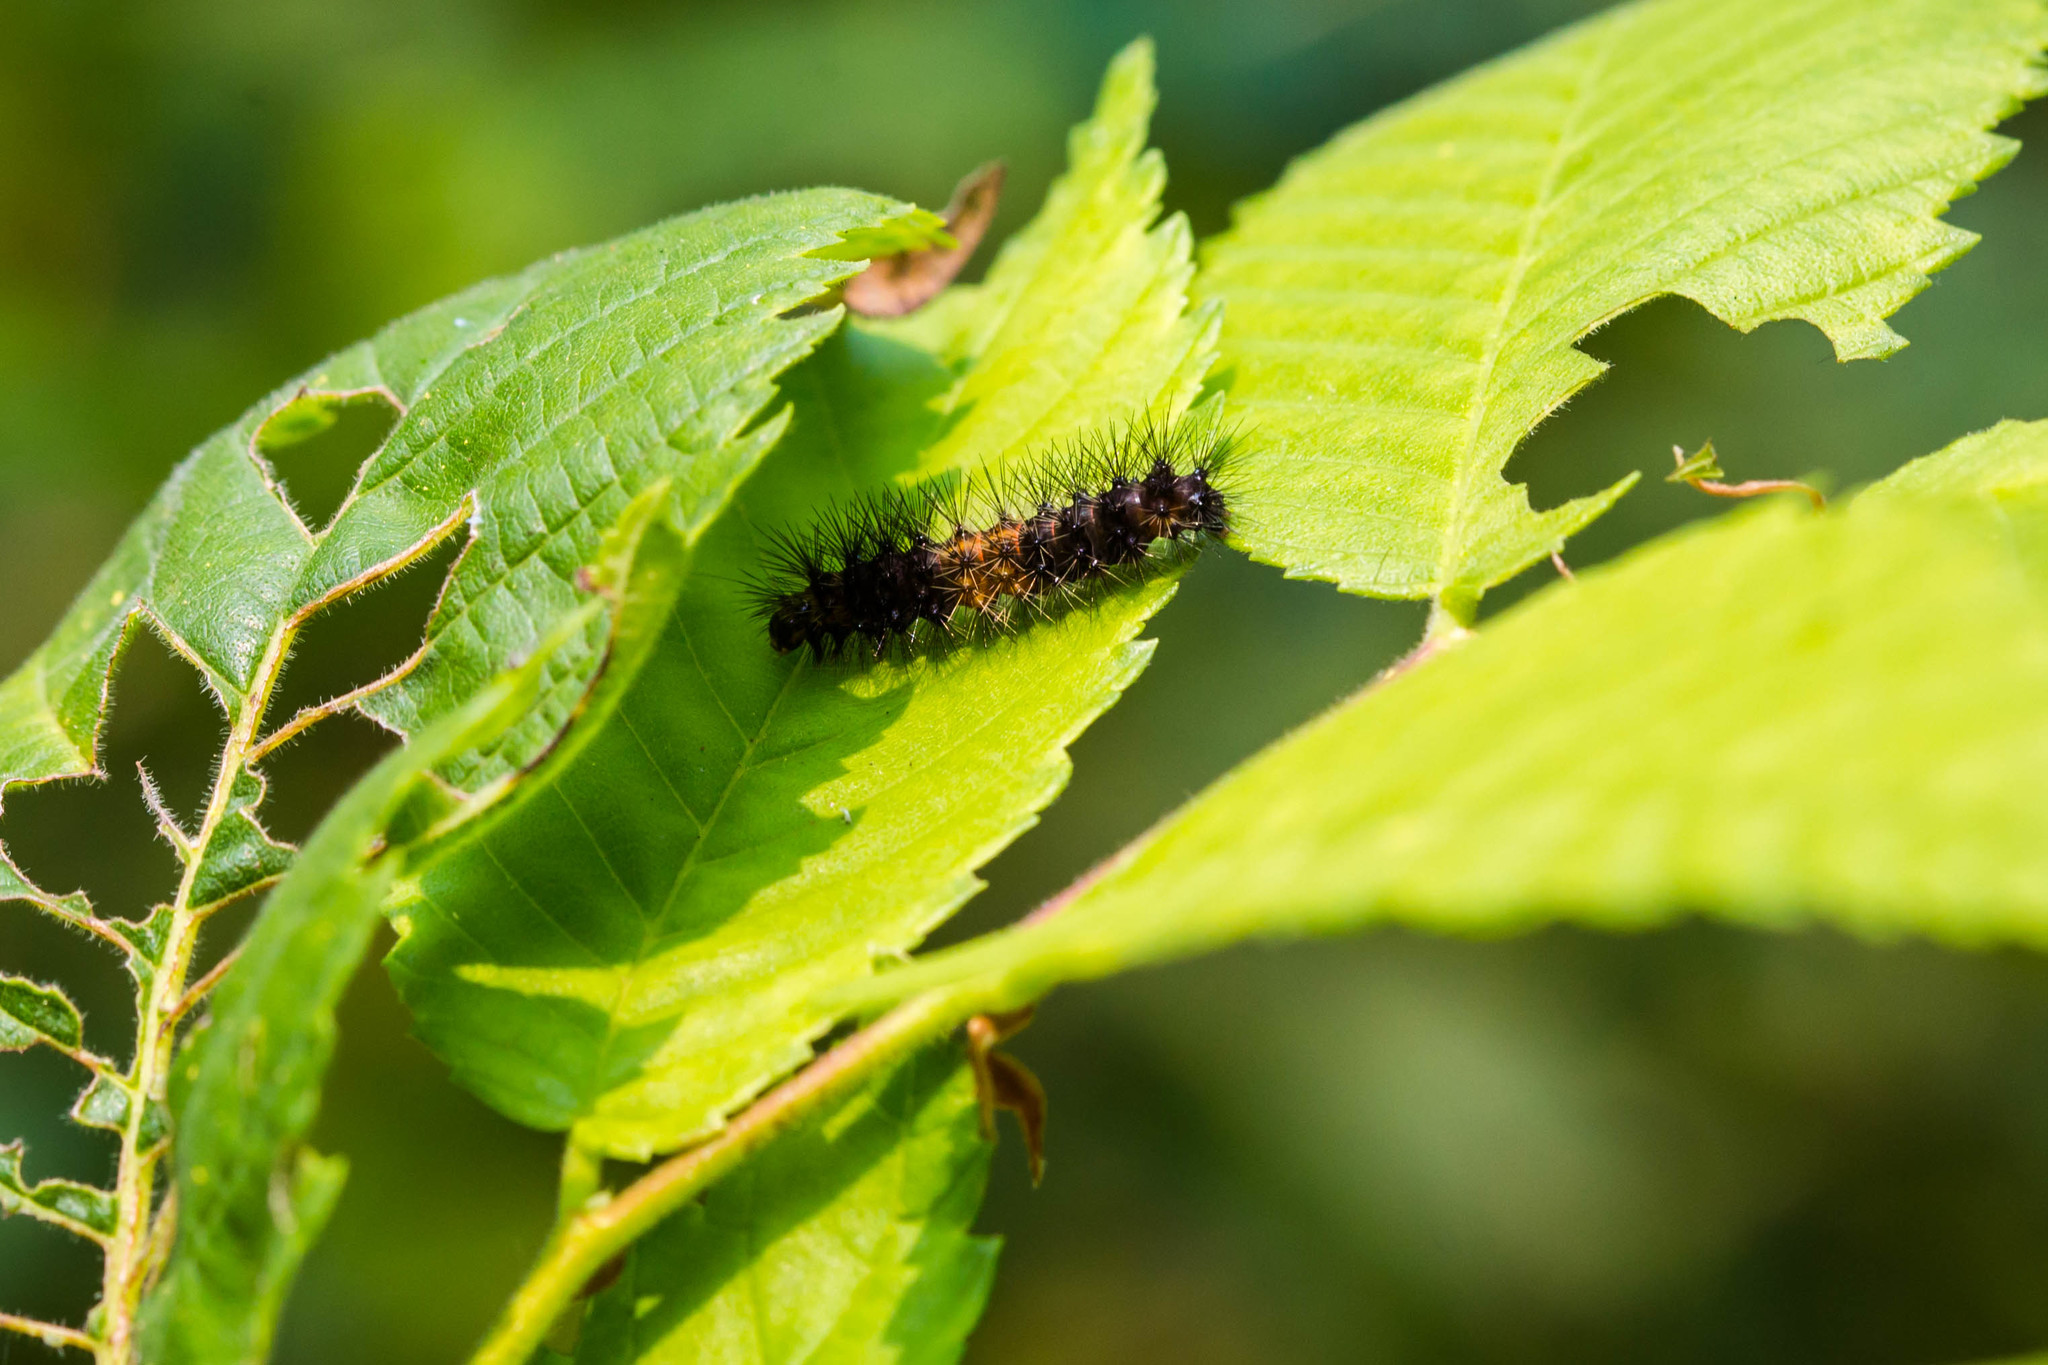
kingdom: Animalia
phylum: Arthropoda
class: Insecta
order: Lepidoptera
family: Erebidae
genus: Hypercompe
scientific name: Hypercompe scribonia
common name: Giant leopard moth
